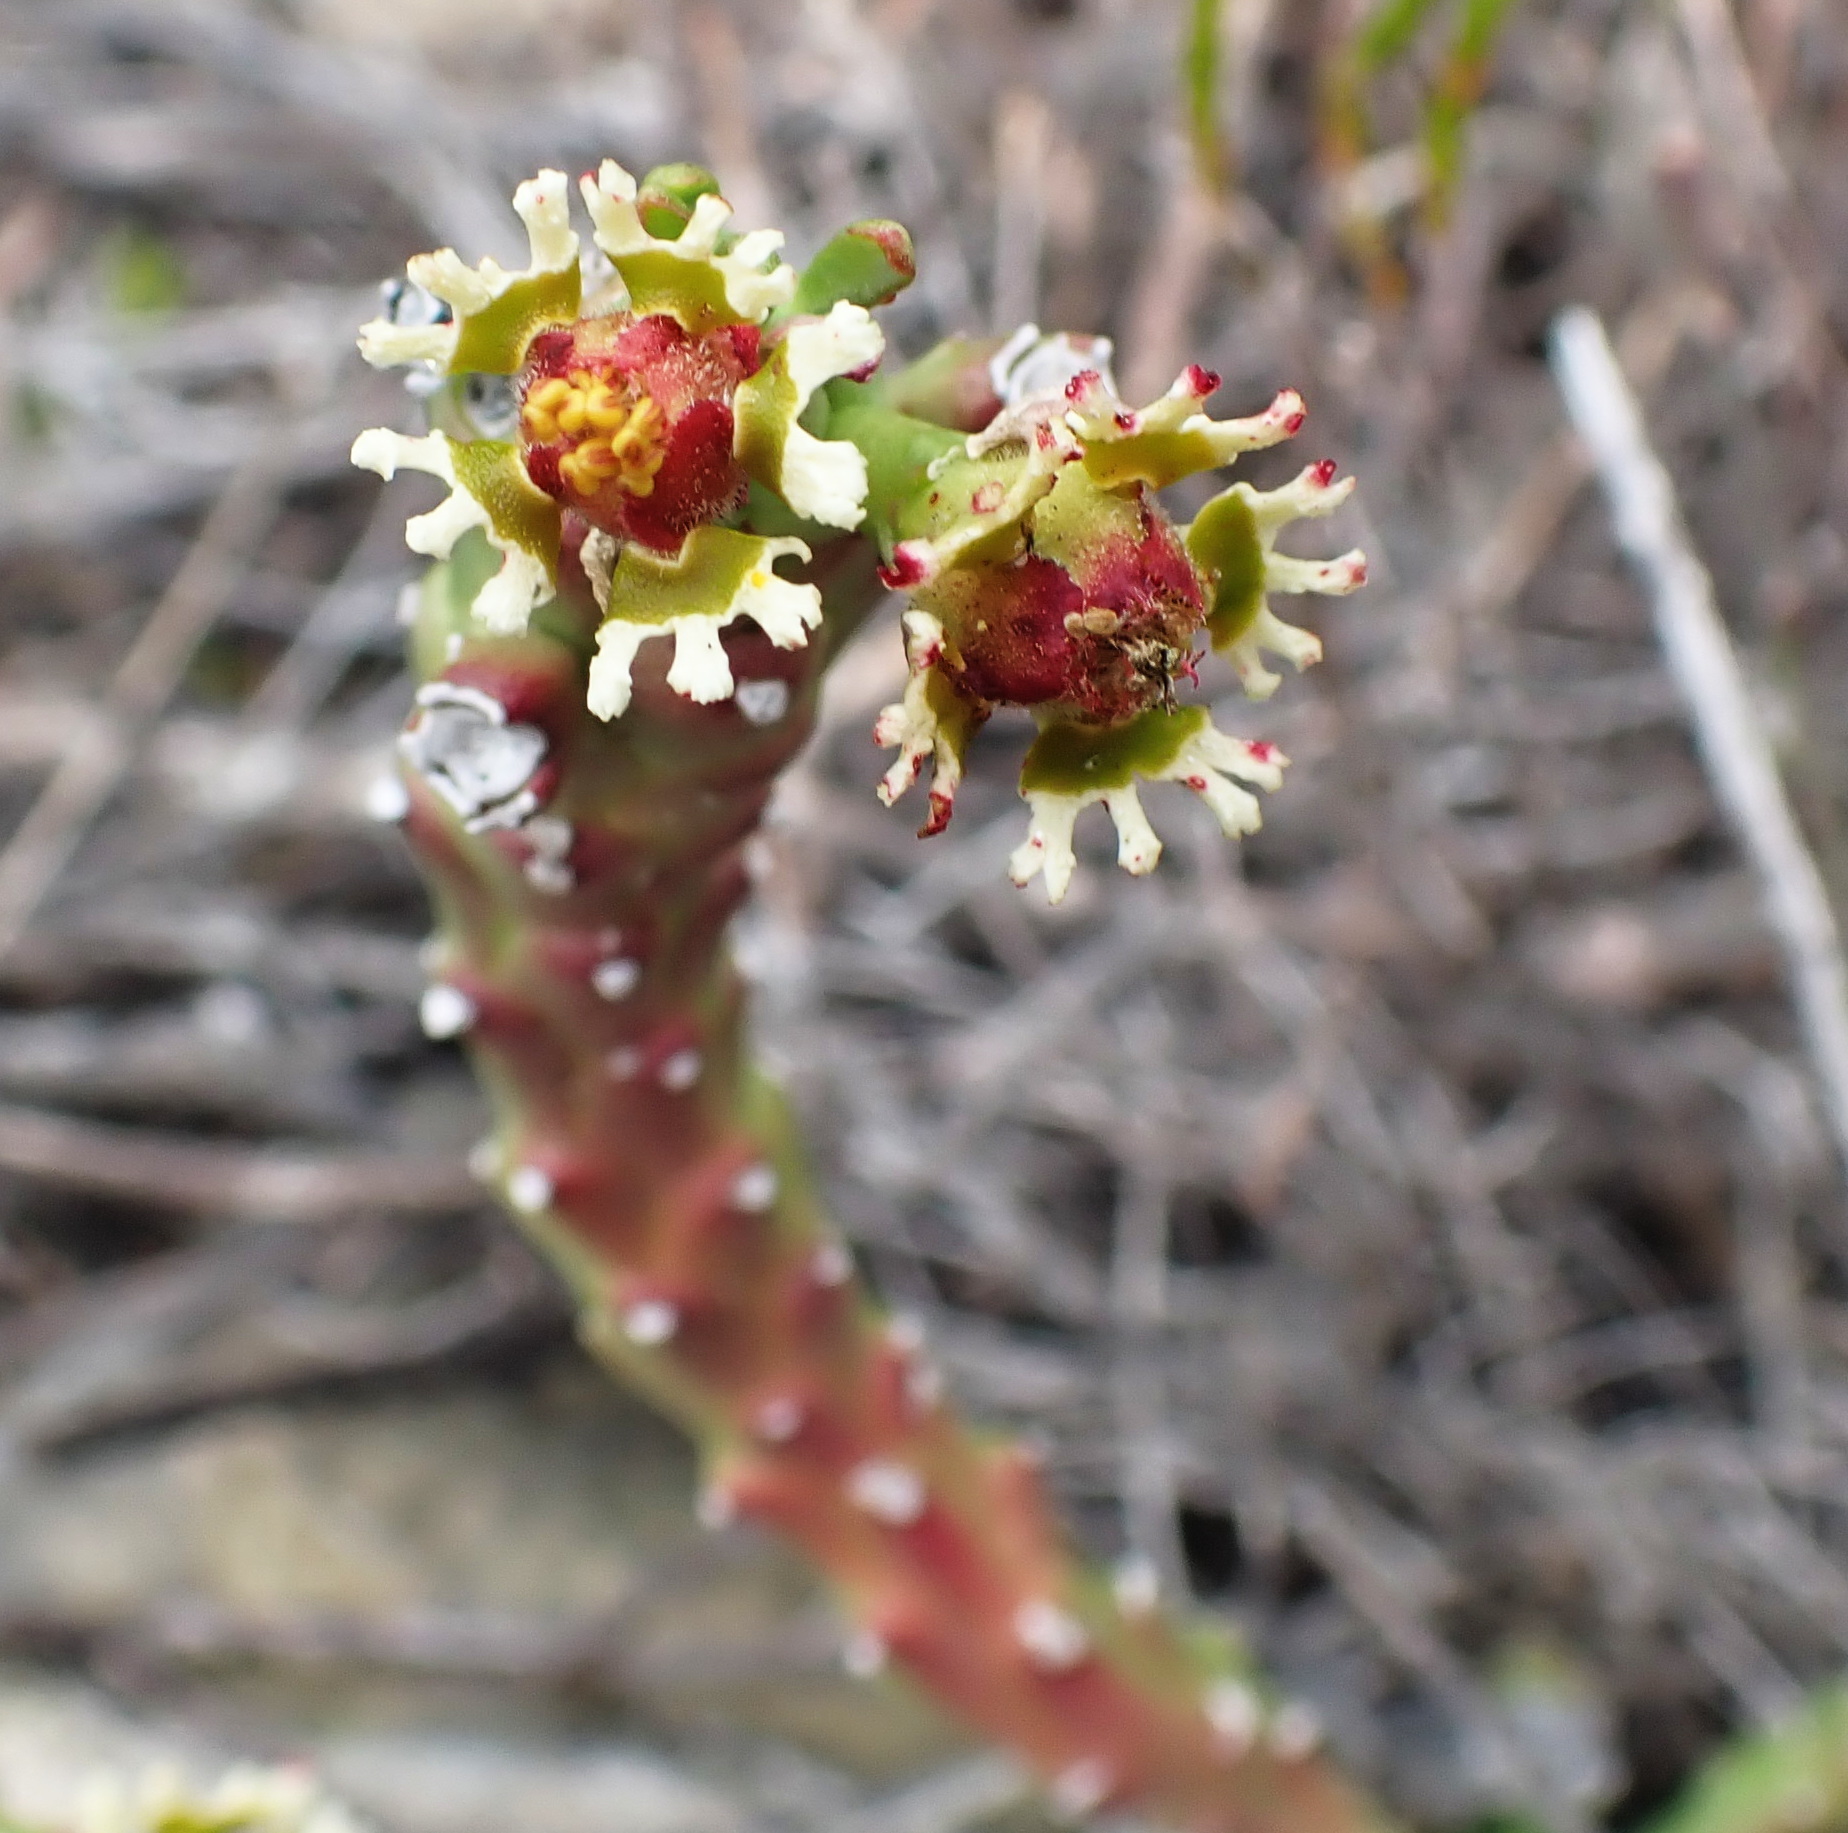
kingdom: Plantae
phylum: Tracheophyta
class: Magnoliopsida
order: Malpighiales
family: Euphorbiaceae
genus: Euphorbia
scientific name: Euphorbia caput-medusae
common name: Medusa's-head
